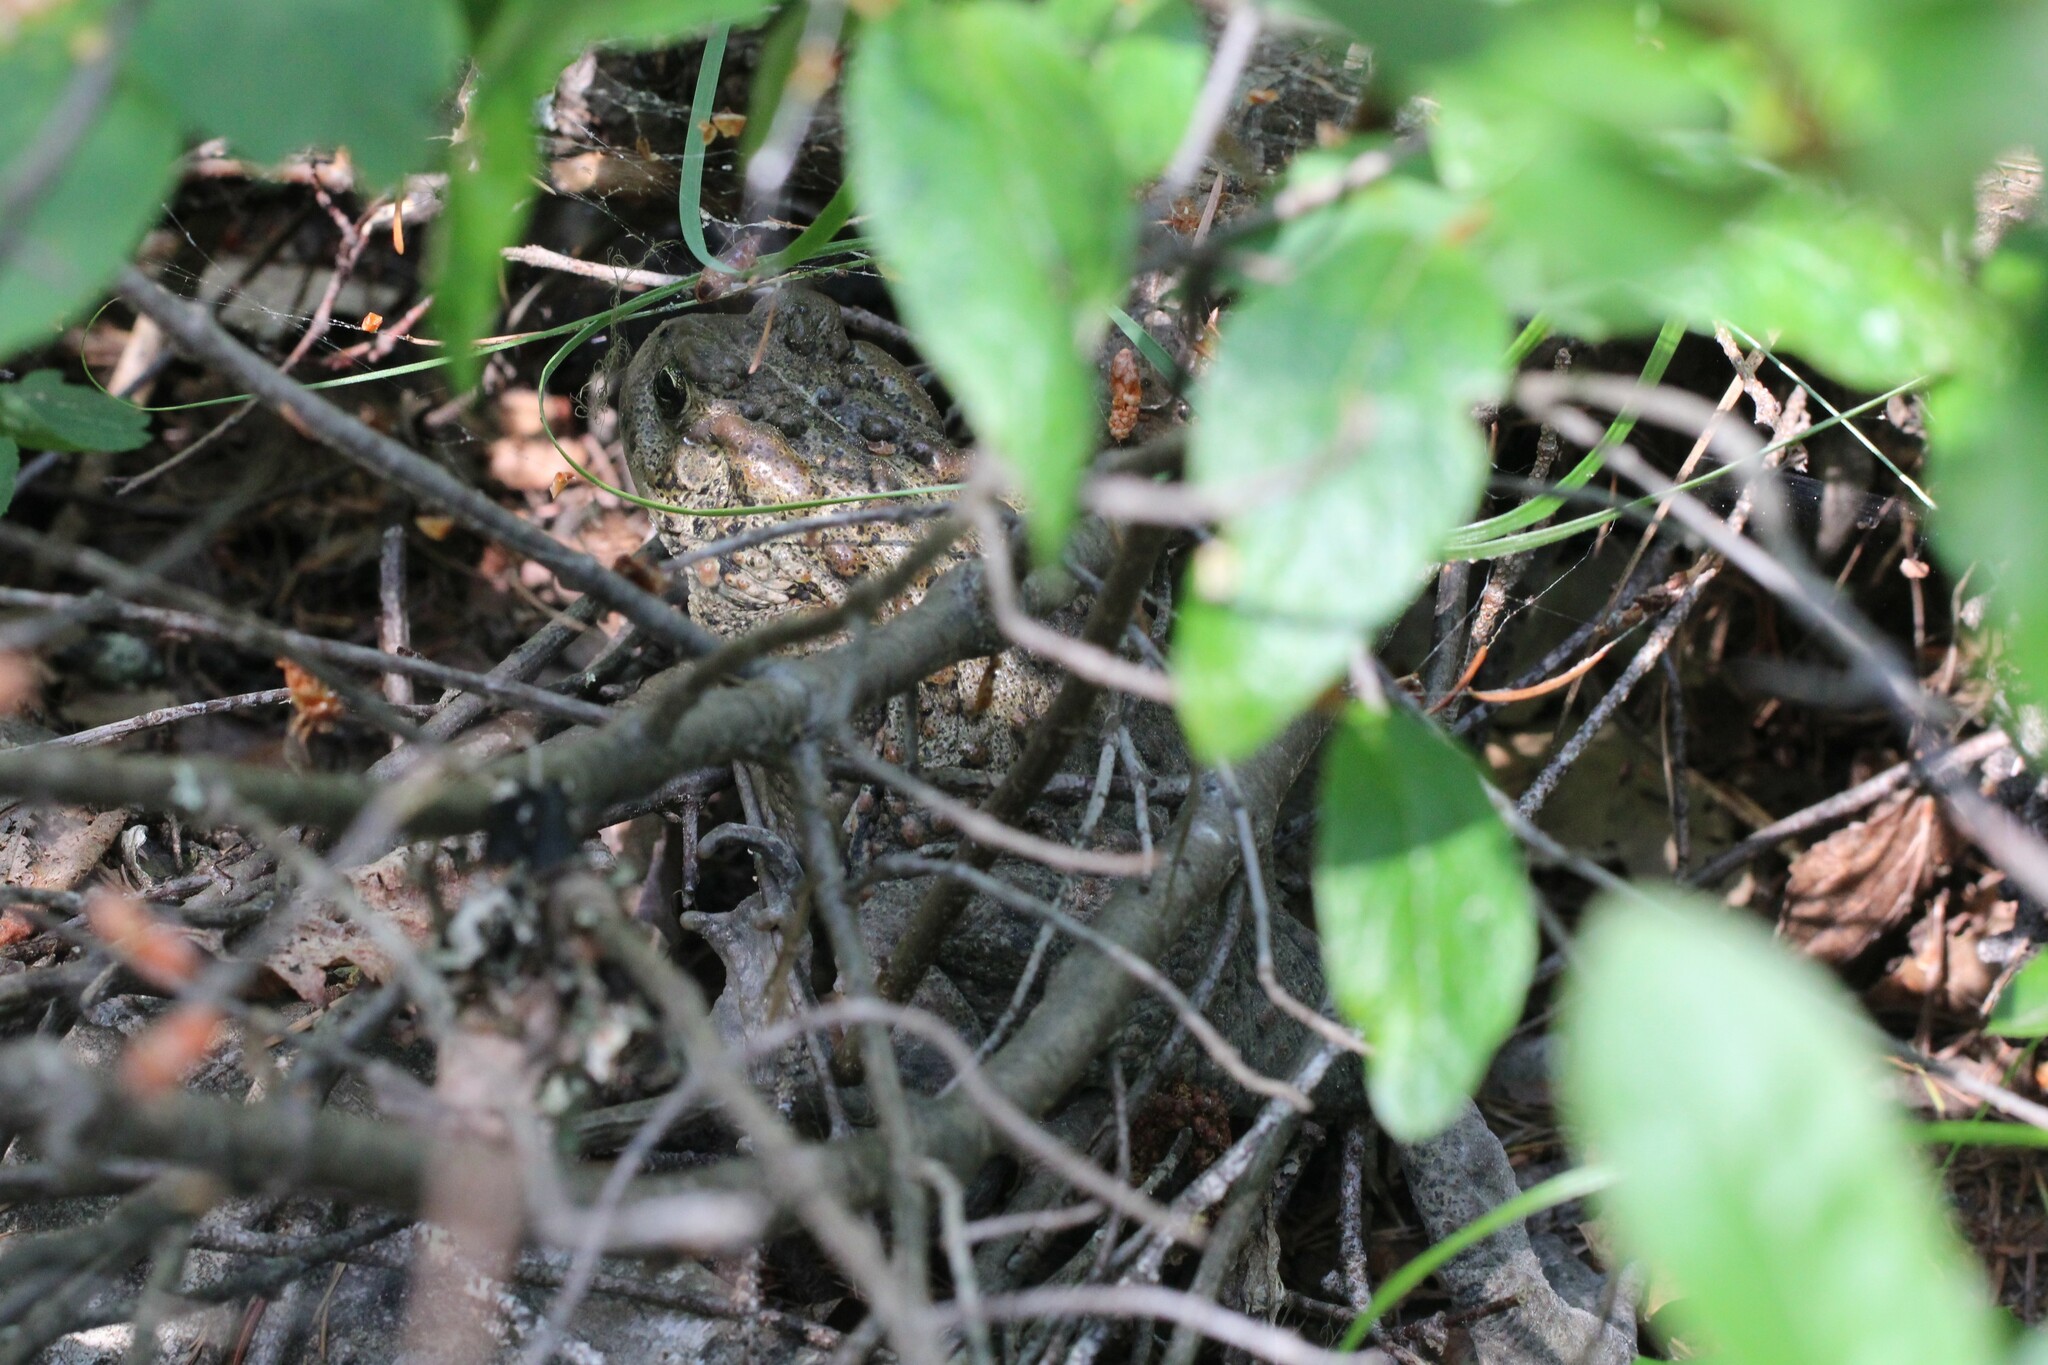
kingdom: Animalia
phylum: Chordata
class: Amphibia
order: Anura
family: Bufonidae
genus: Anaxyrus
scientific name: Anaxyrus boreas
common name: Western toad
